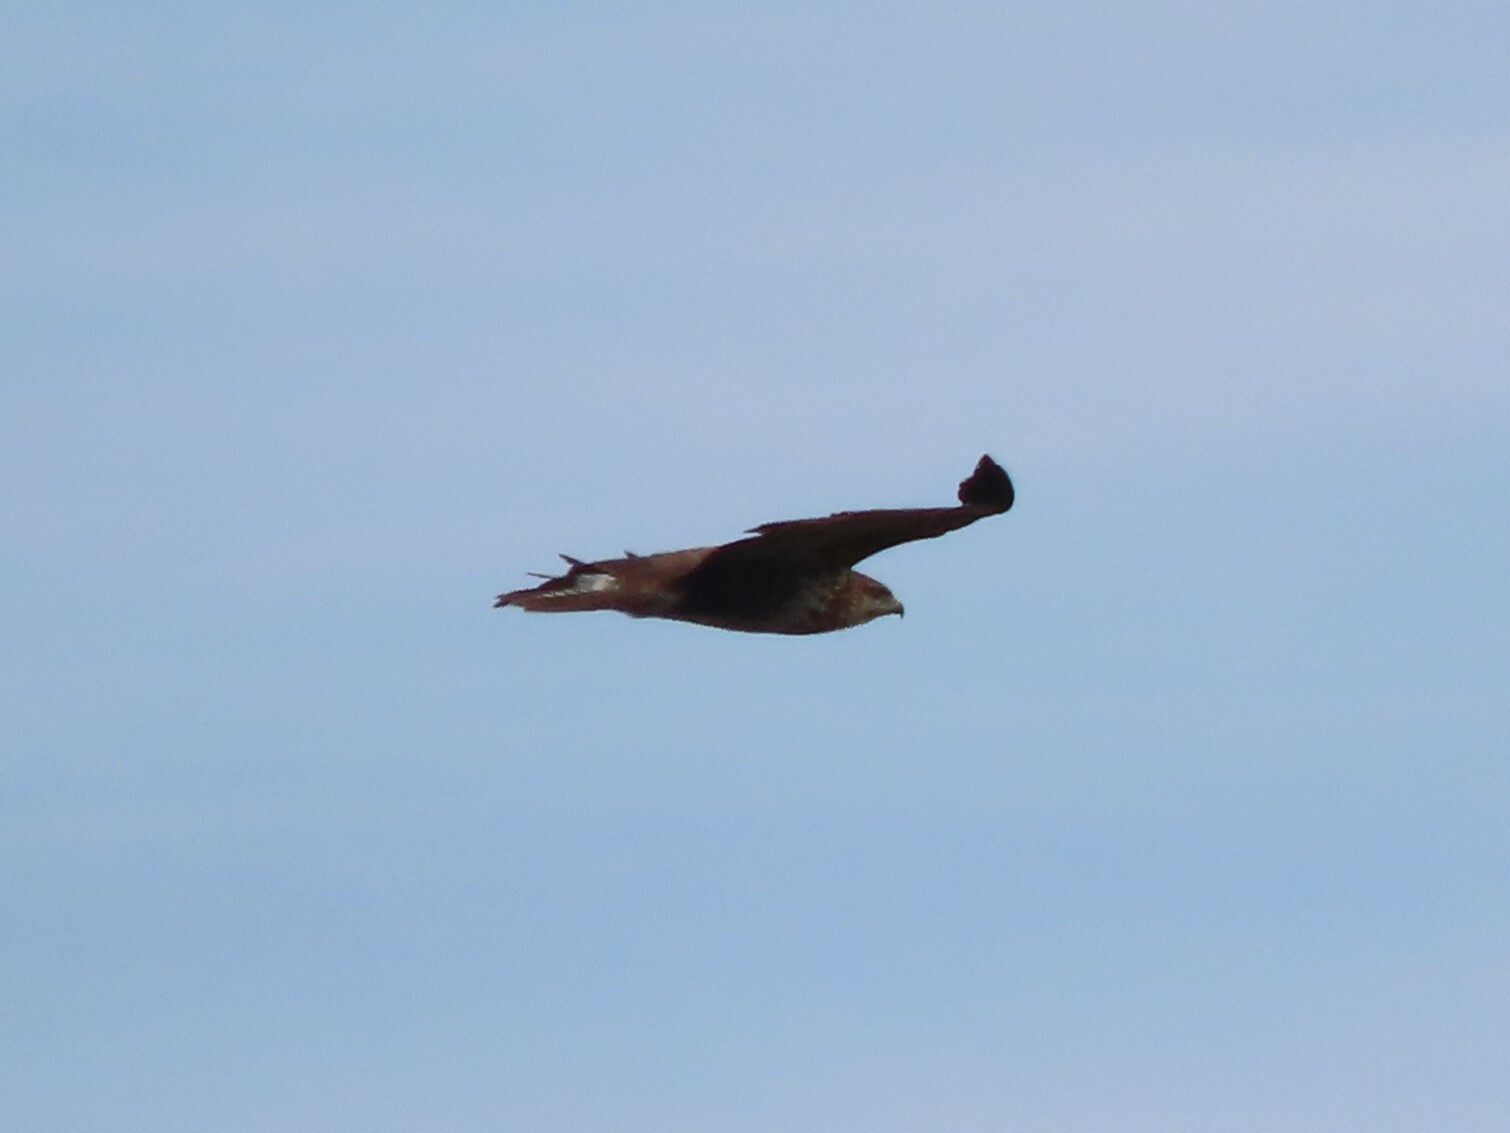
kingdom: Animalia
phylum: Chordata
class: Aves
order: Accipitriformes
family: Accipitridae
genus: Buteo
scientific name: Buteo buteo
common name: Common buzzard
